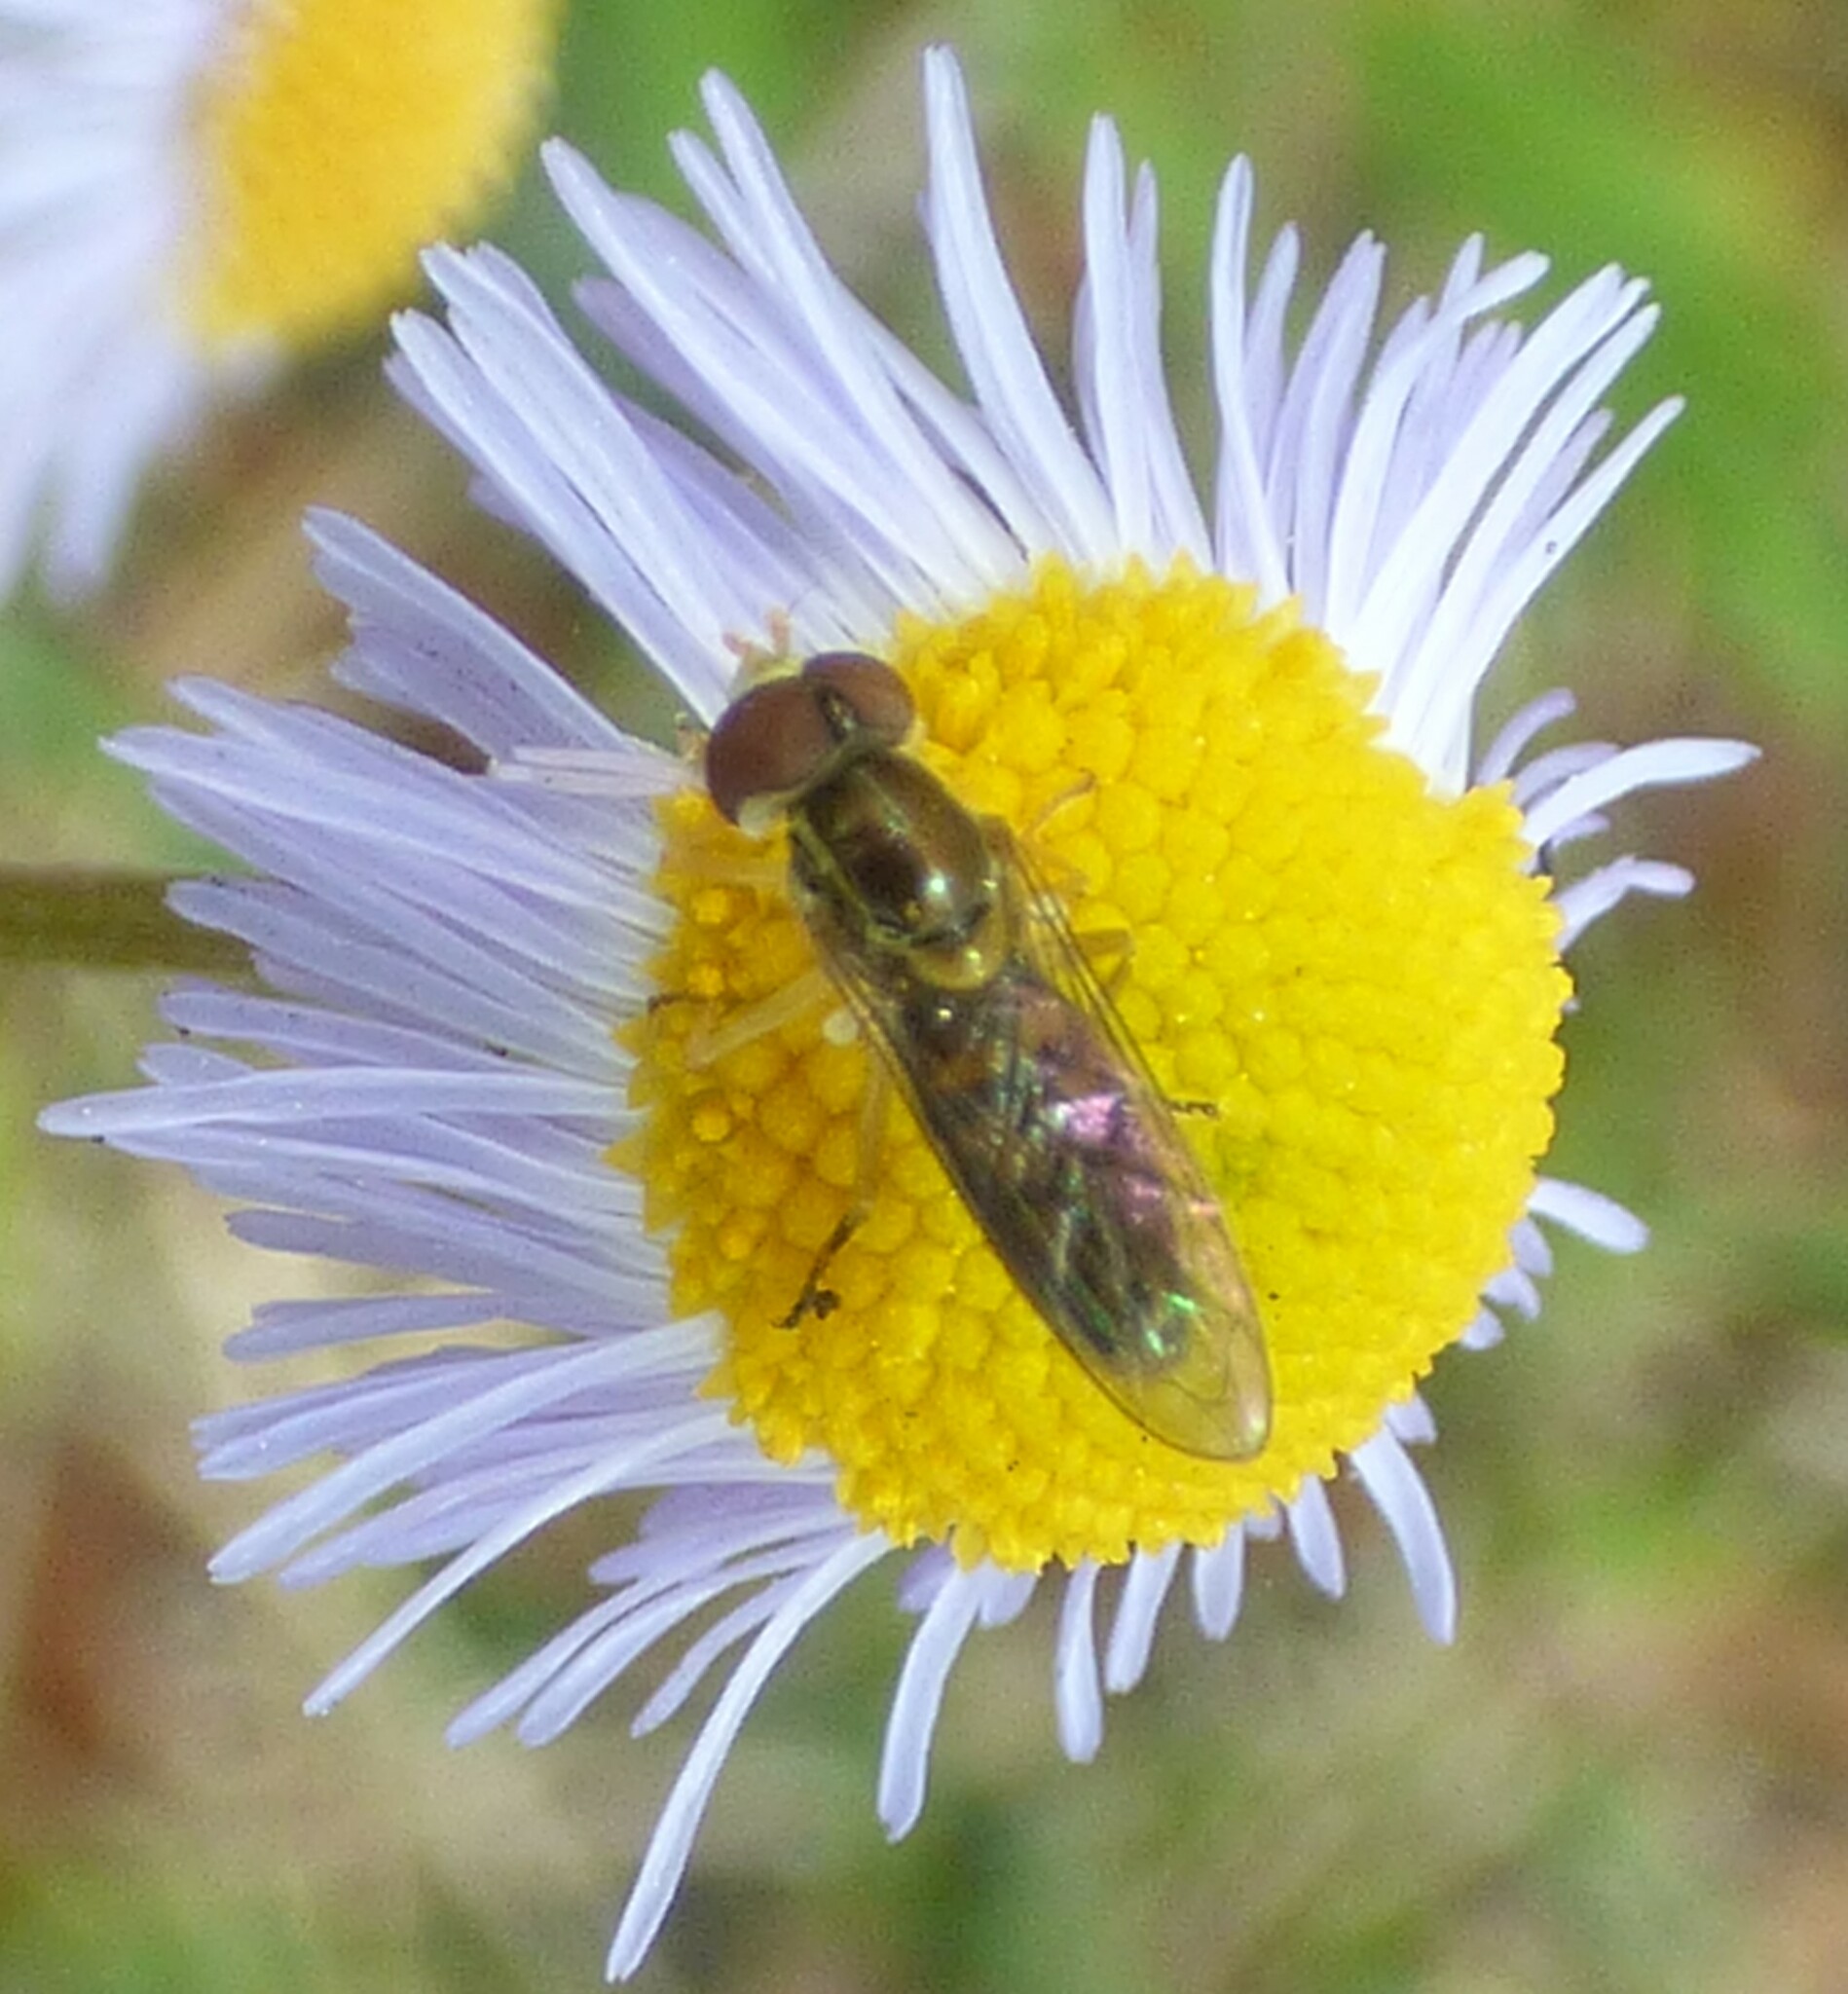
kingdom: Animalia
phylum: Arthropoda
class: Insecta
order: Diptera
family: Syrphidae
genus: Toxomerus
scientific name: Toxomerus marginatus
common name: Syrphid fly
